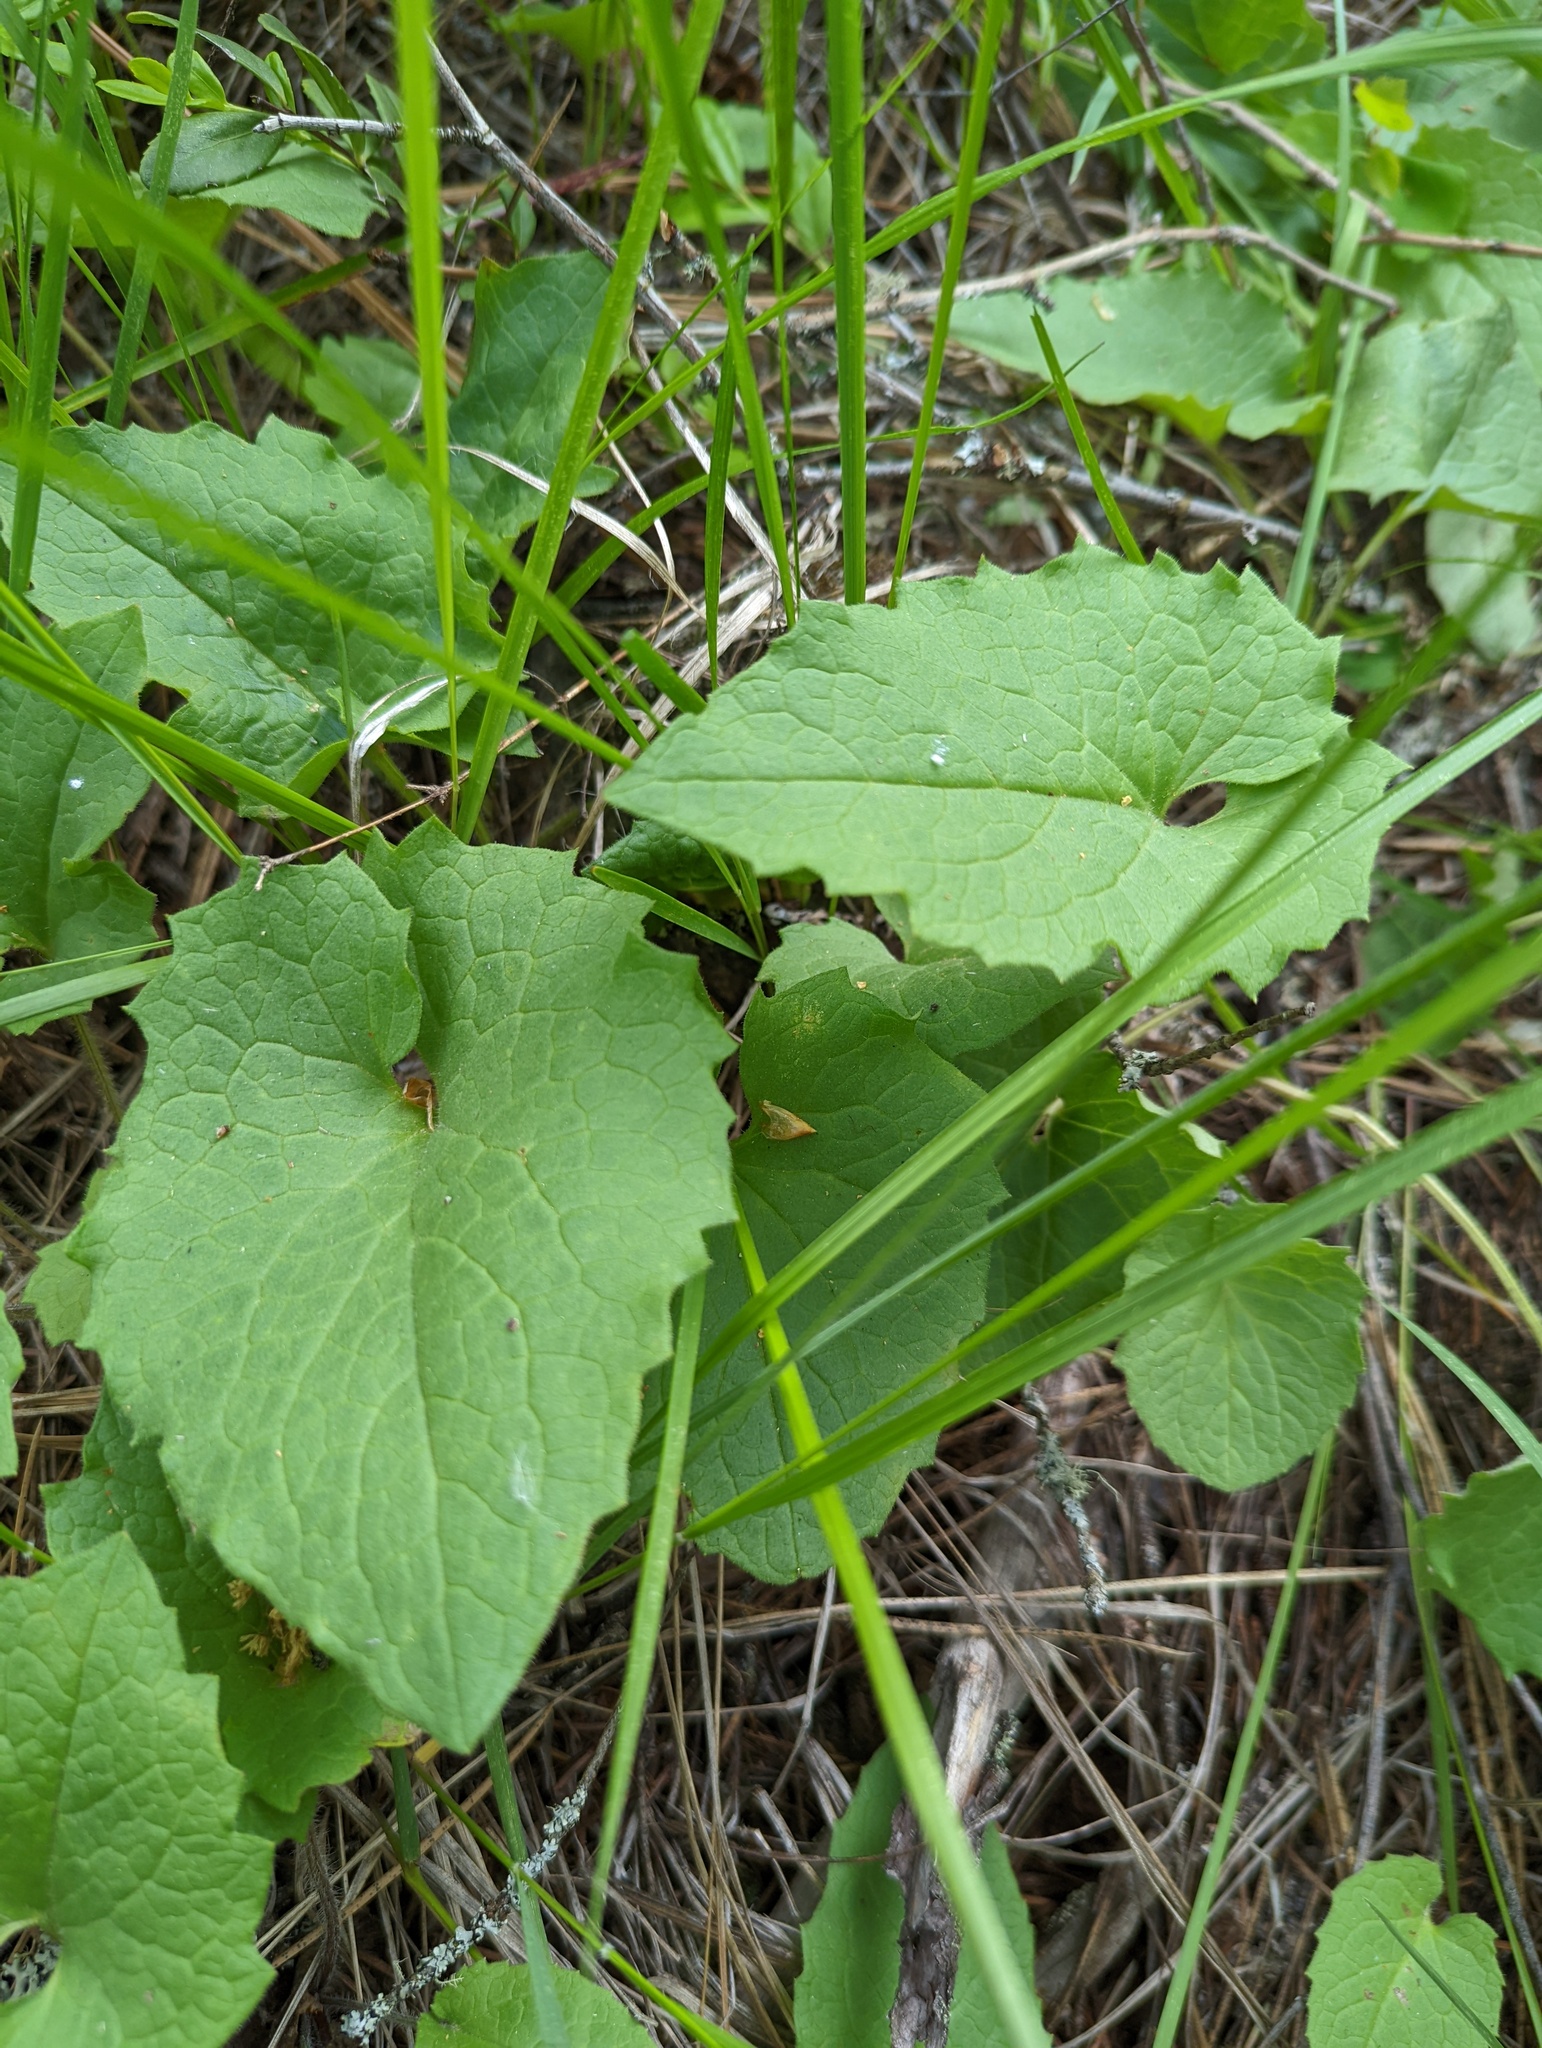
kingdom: Plantae
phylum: Tracheophyta
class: Magnoliopsida
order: Asterales
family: Asteraceae
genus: Arnica
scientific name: Arnica cordifolia
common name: Heart-leaf arnica
